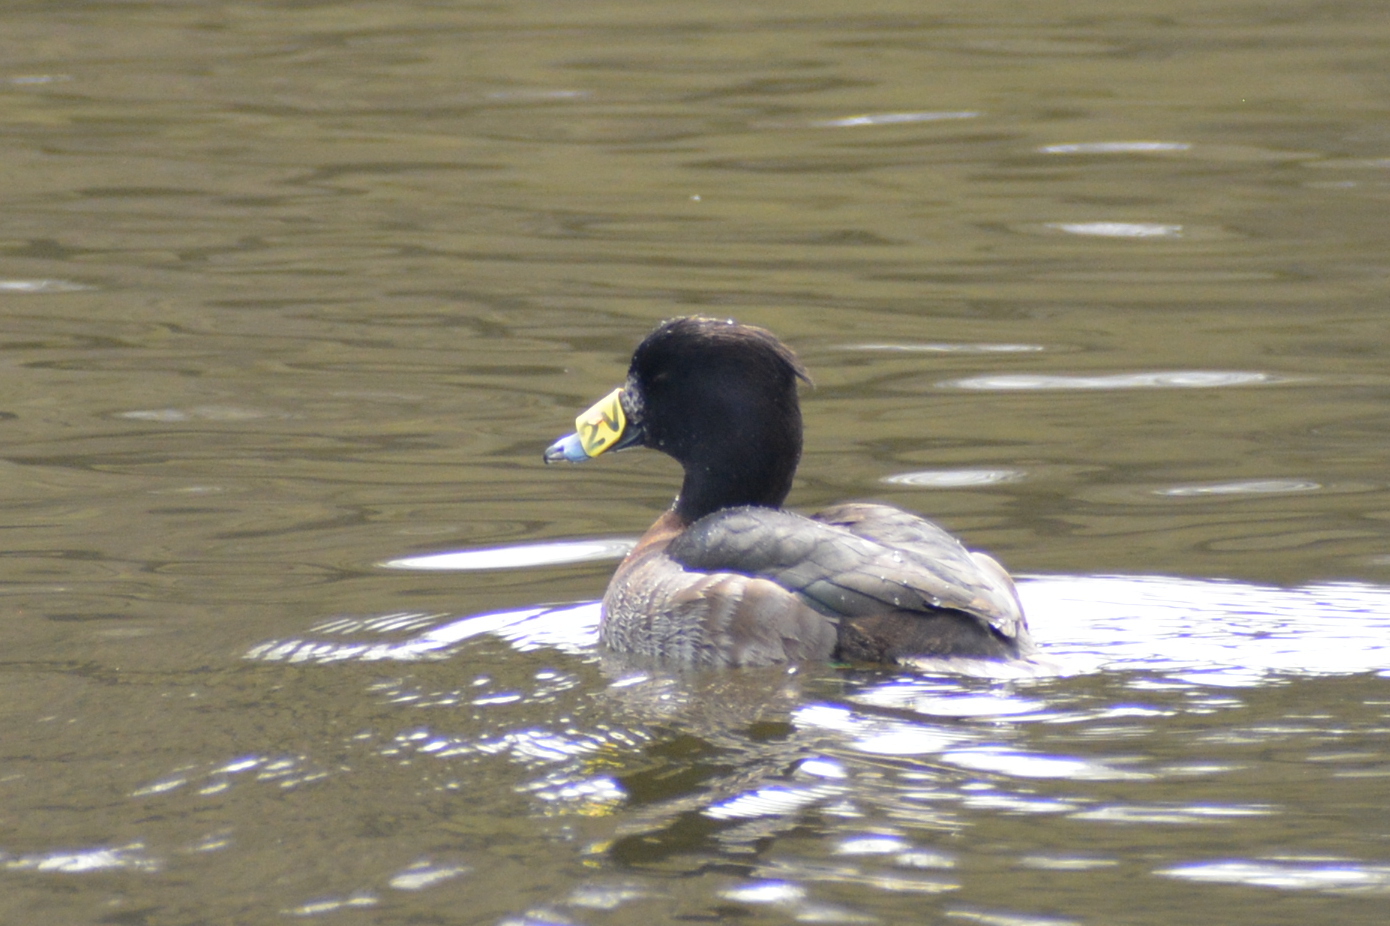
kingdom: Animalia
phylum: Chordata
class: Aves
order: Anseriformes
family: Anatidae
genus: Aythya
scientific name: Aythya fuligula
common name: Tufted duck
